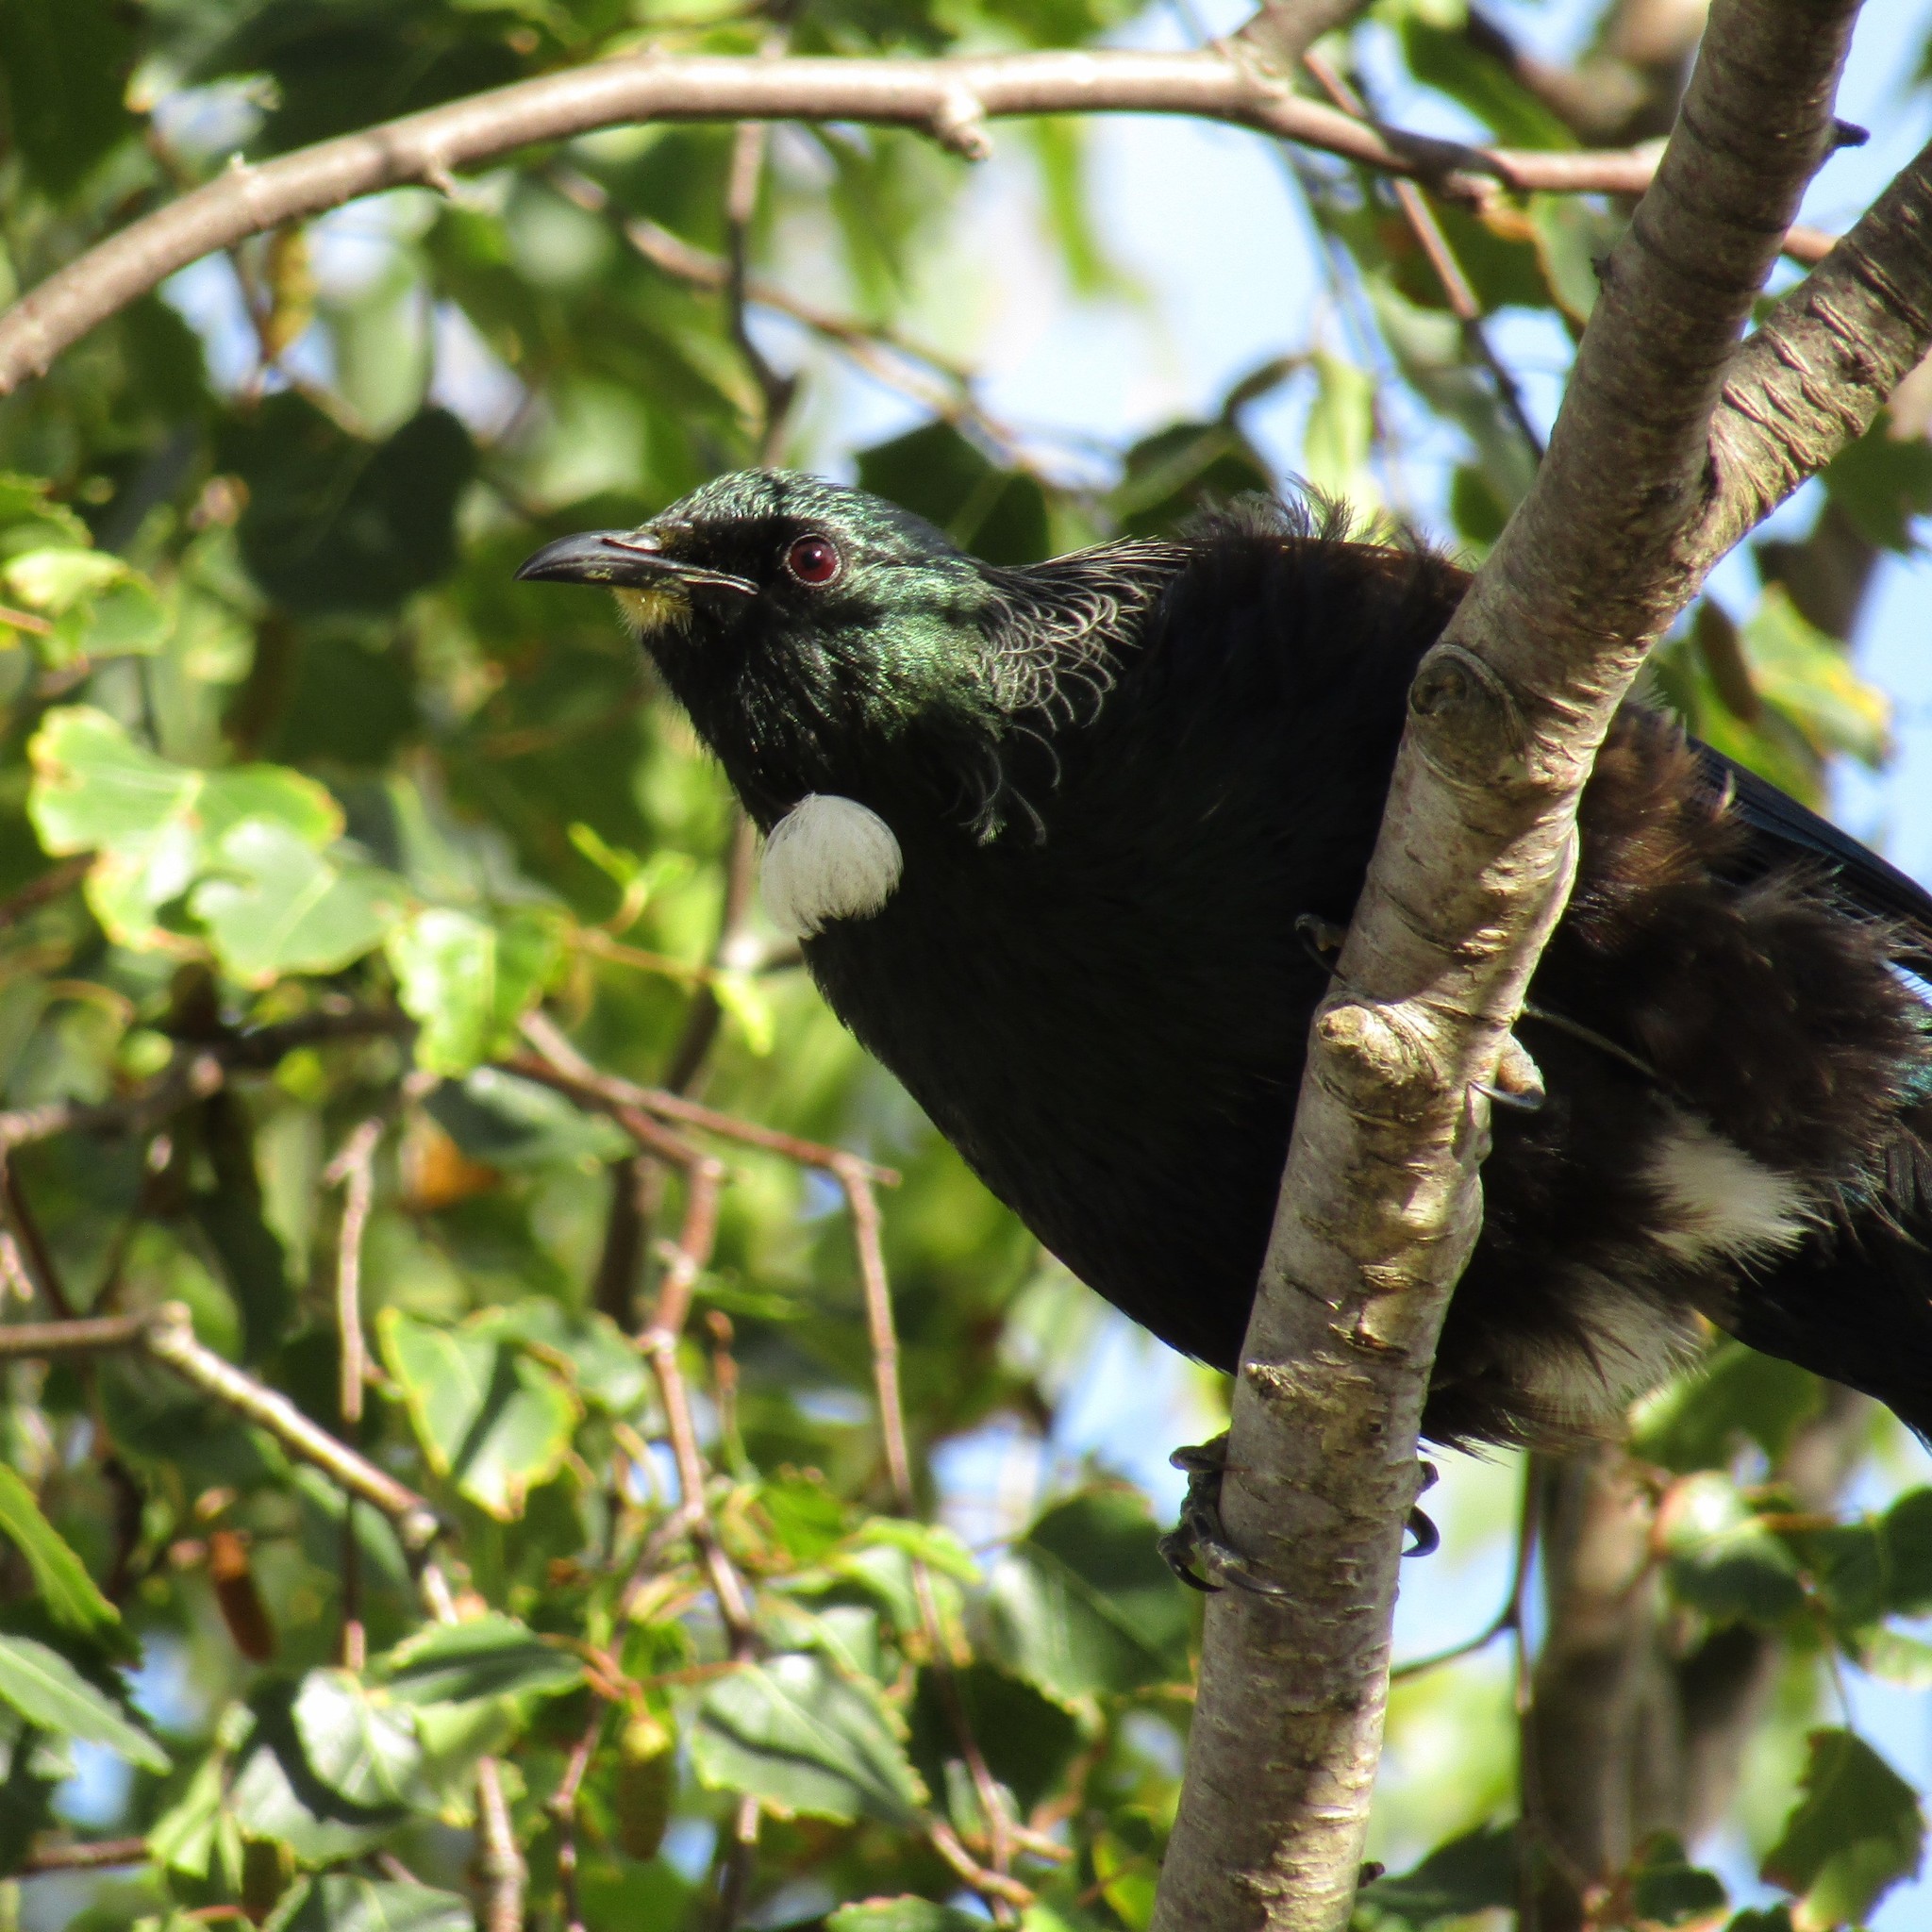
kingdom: Animalia
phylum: Chordata
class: Aves
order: Passeriformes
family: Meliphagidae
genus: Prosthemadera
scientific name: Prosthemadera novaeseelandiae
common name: Tui
